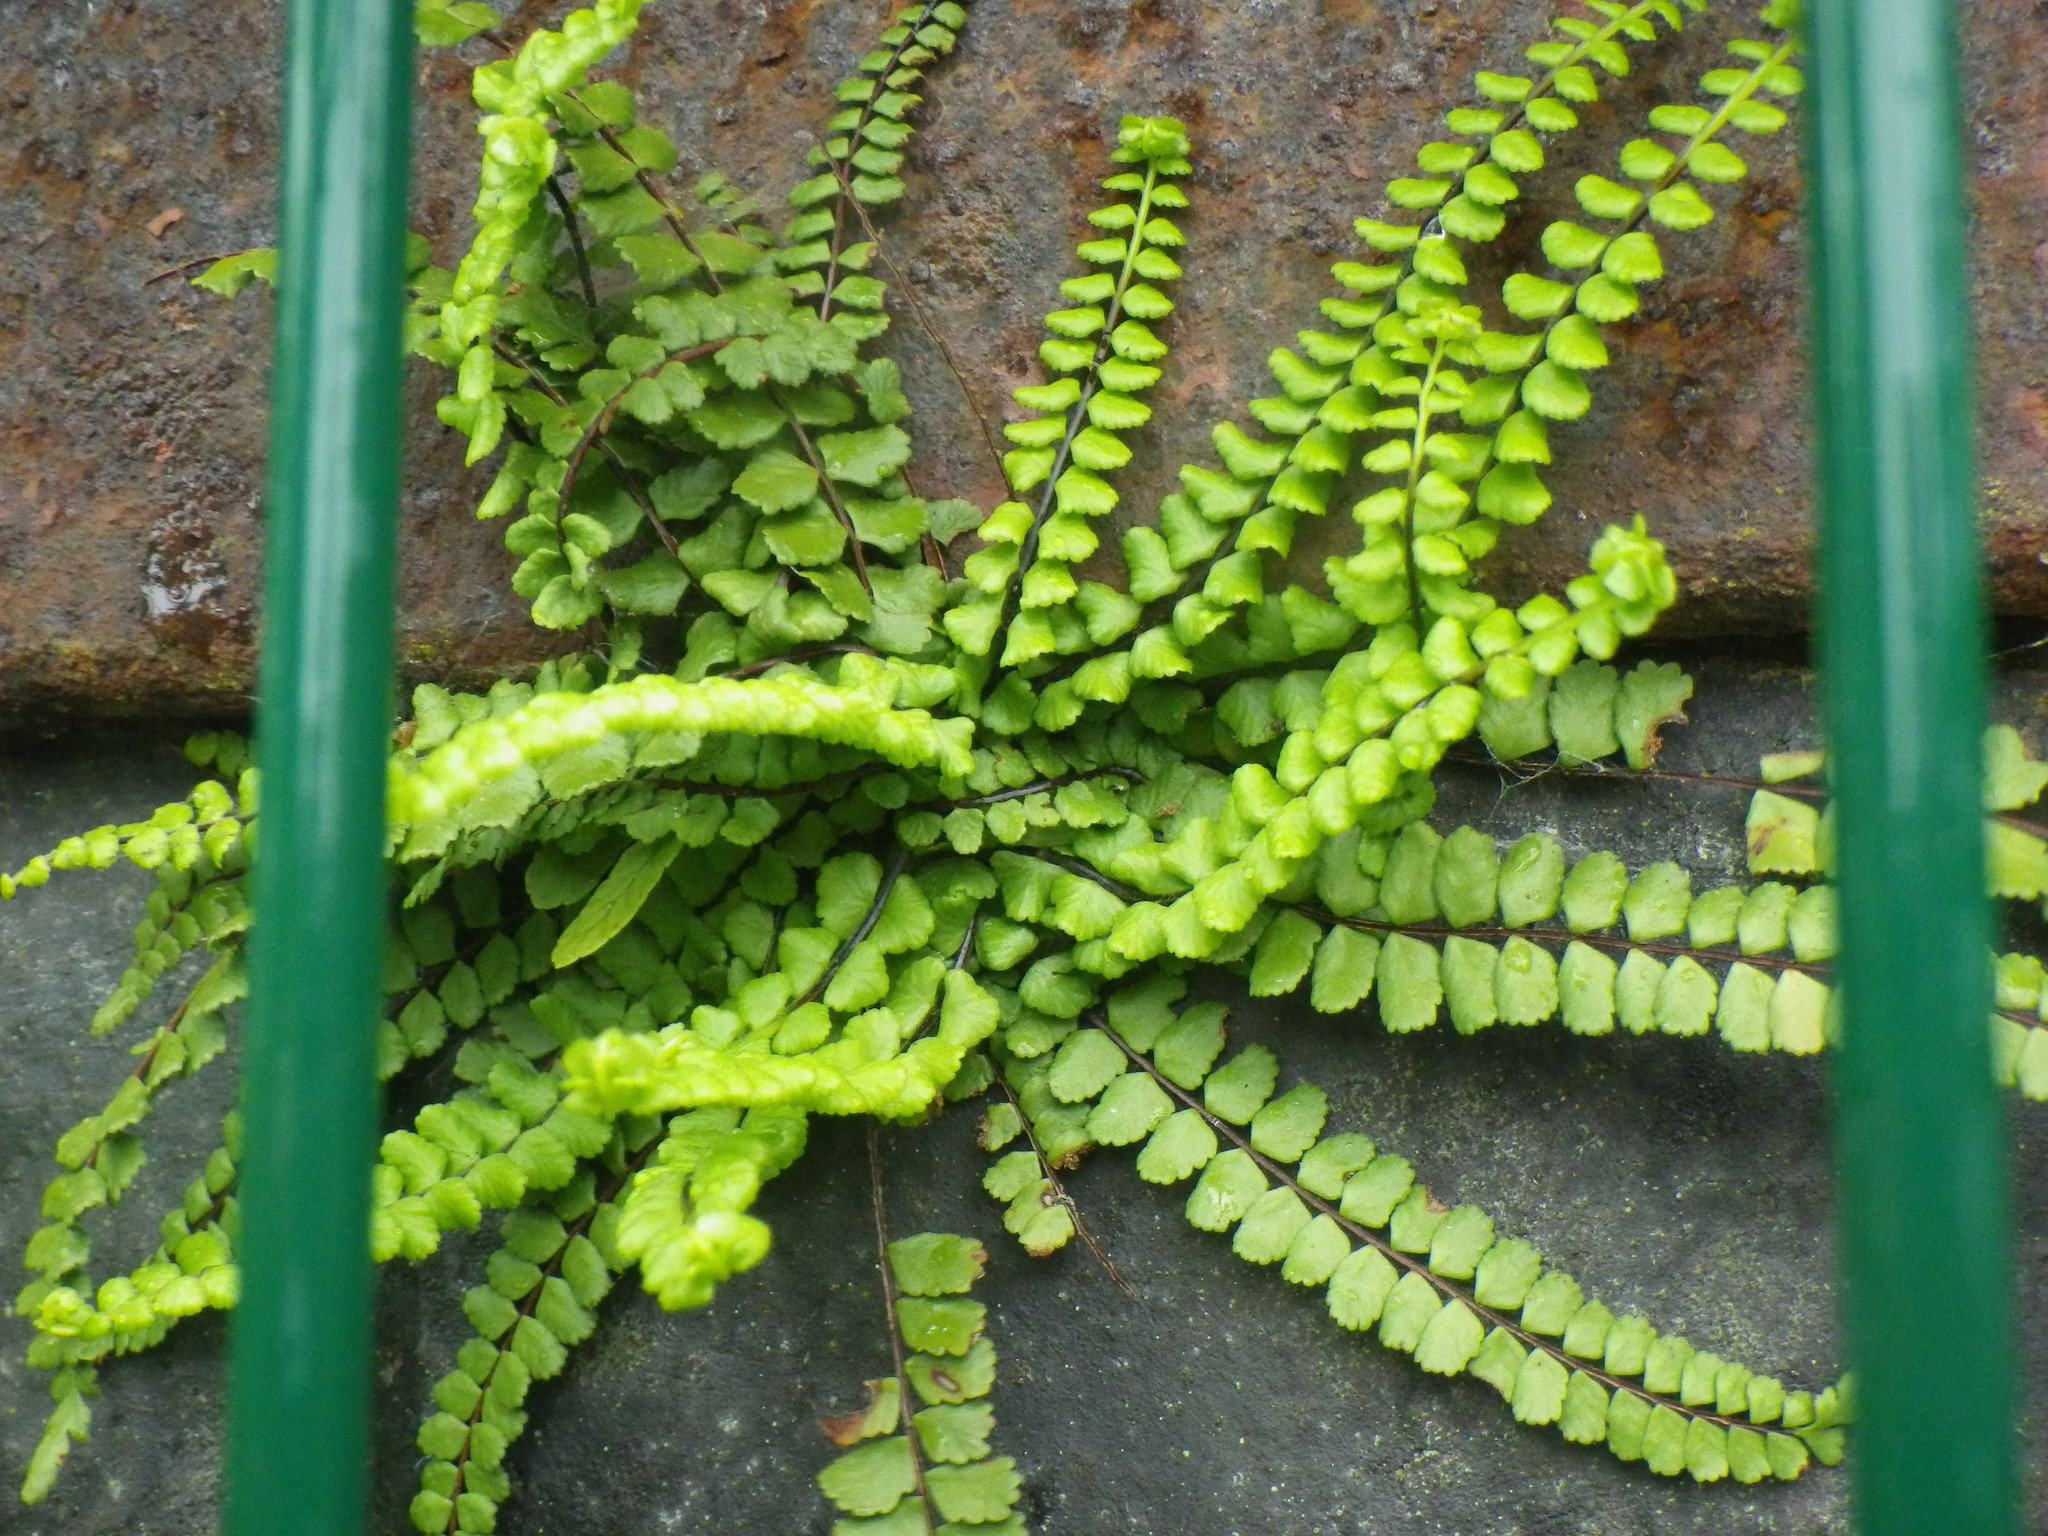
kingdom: Plantae
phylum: Tracheophyta
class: Polypodiopsida
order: Polypodiales
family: Aspleniaceae
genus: Asplenium
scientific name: Asplenium trichomanes
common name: Maidenhair spleenwort
